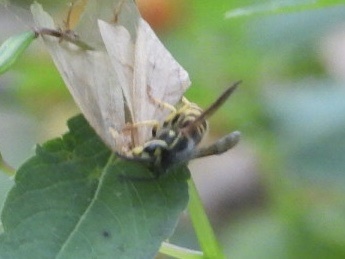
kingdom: Animalia
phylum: Arthropoda
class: Insecta
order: Hymenoptera
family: Vespidae
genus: Vespula
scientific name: Vespula maculifrons
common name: Eastern yellowjacket
